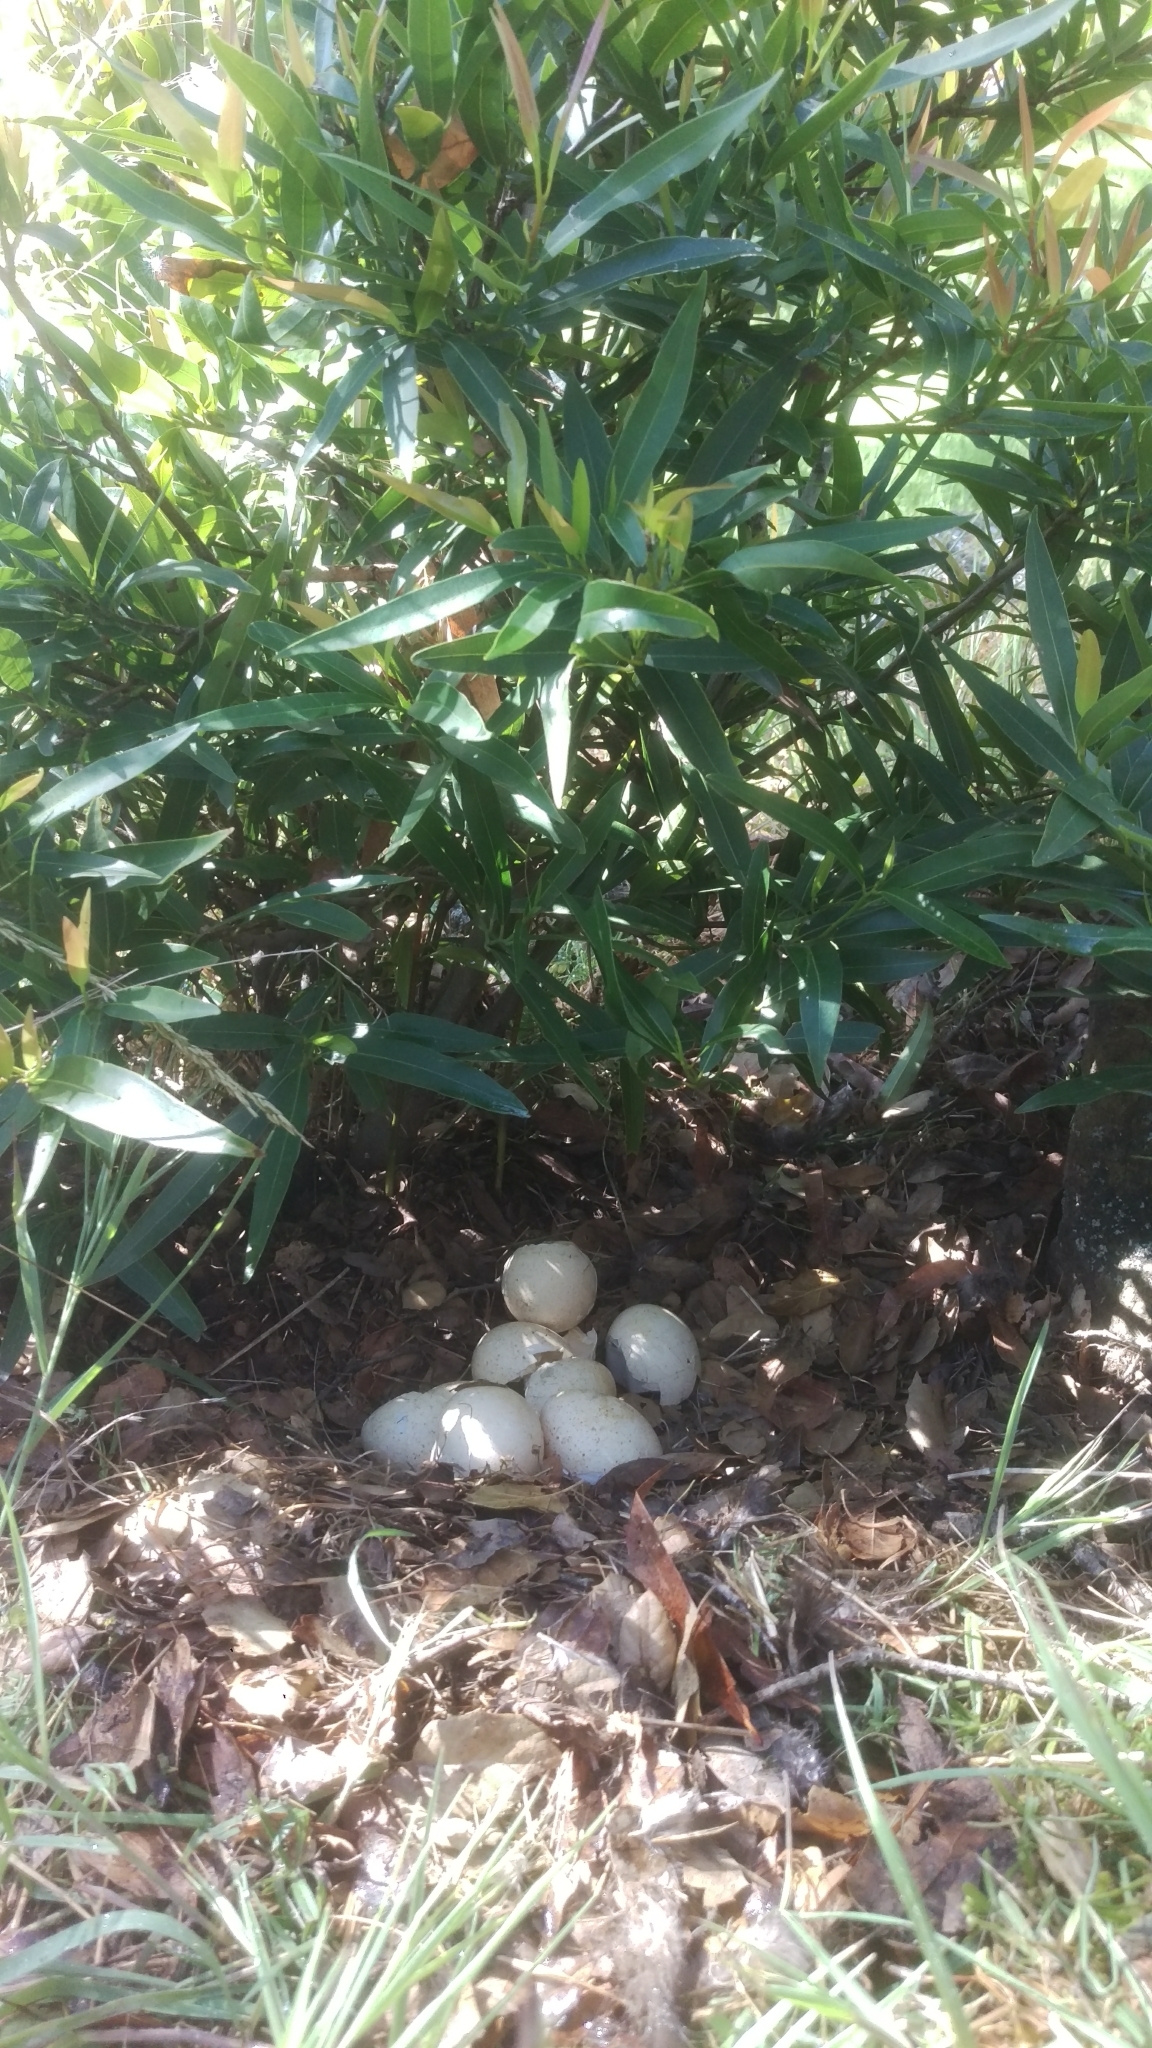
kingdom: Animalia
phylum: Chordata
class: Aves
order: Galliformes
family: Phasianidae
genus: Meleagris
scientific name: Meleagris gallopavo
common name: Wild turkey
